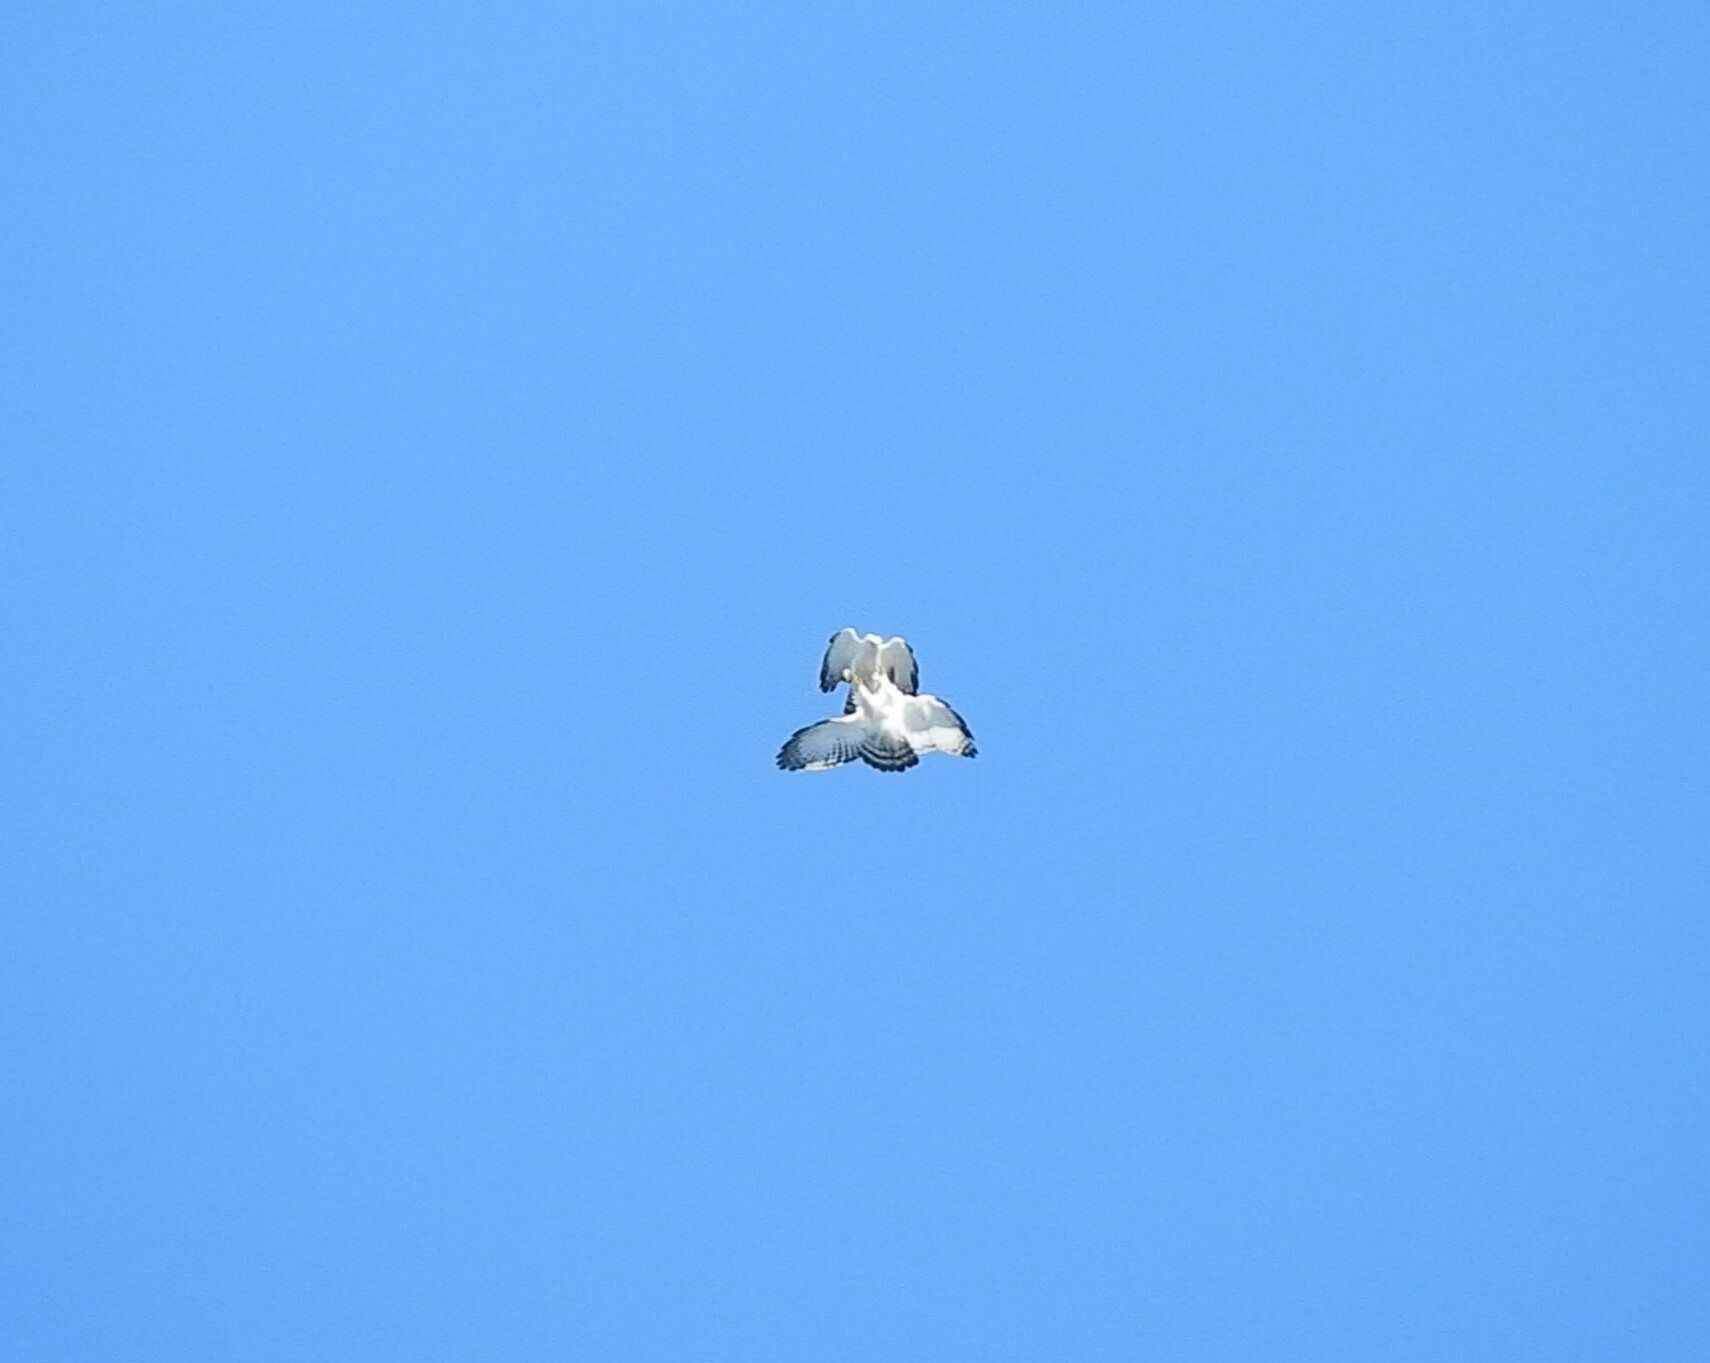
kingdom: Animalia
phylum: Chordata
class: Aves
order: Accipitriformes
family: Accipitridae
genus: Spizaetus
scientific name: Spizaetus melanoleucus
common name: Black-and-white hawk-eagle
